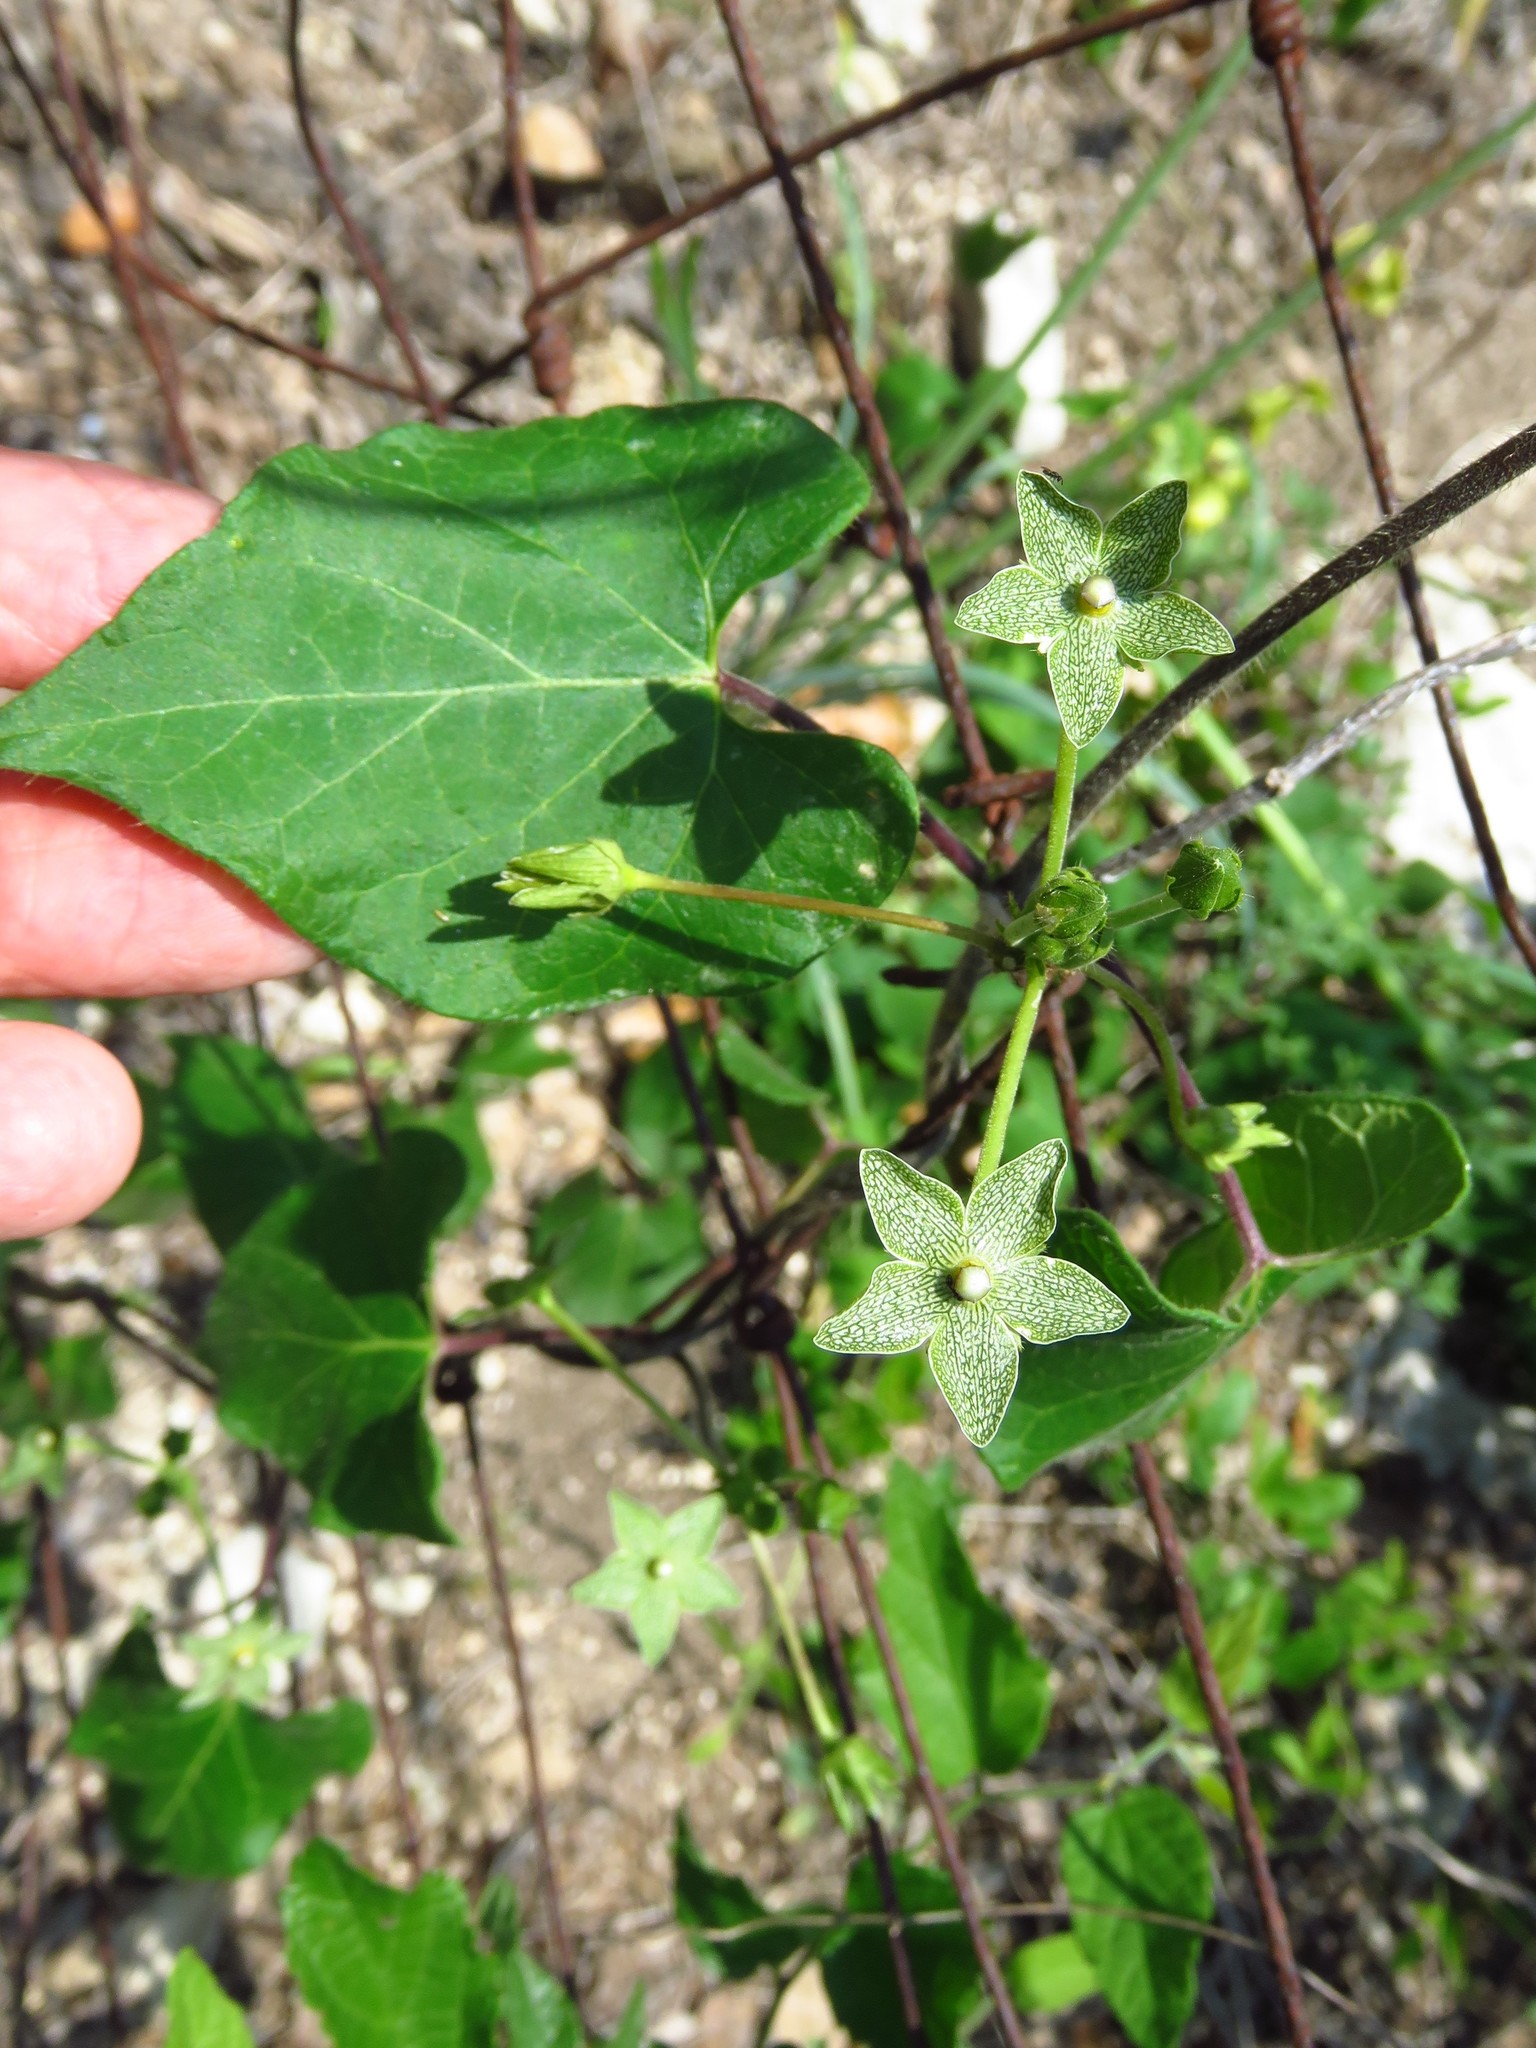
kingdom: Plantae
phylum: Tracheophyta
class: Magnoliopsida
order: Gentianales
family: Apocynaceae
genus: Dictyanthus
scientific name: Dictyanthus reticulatus
